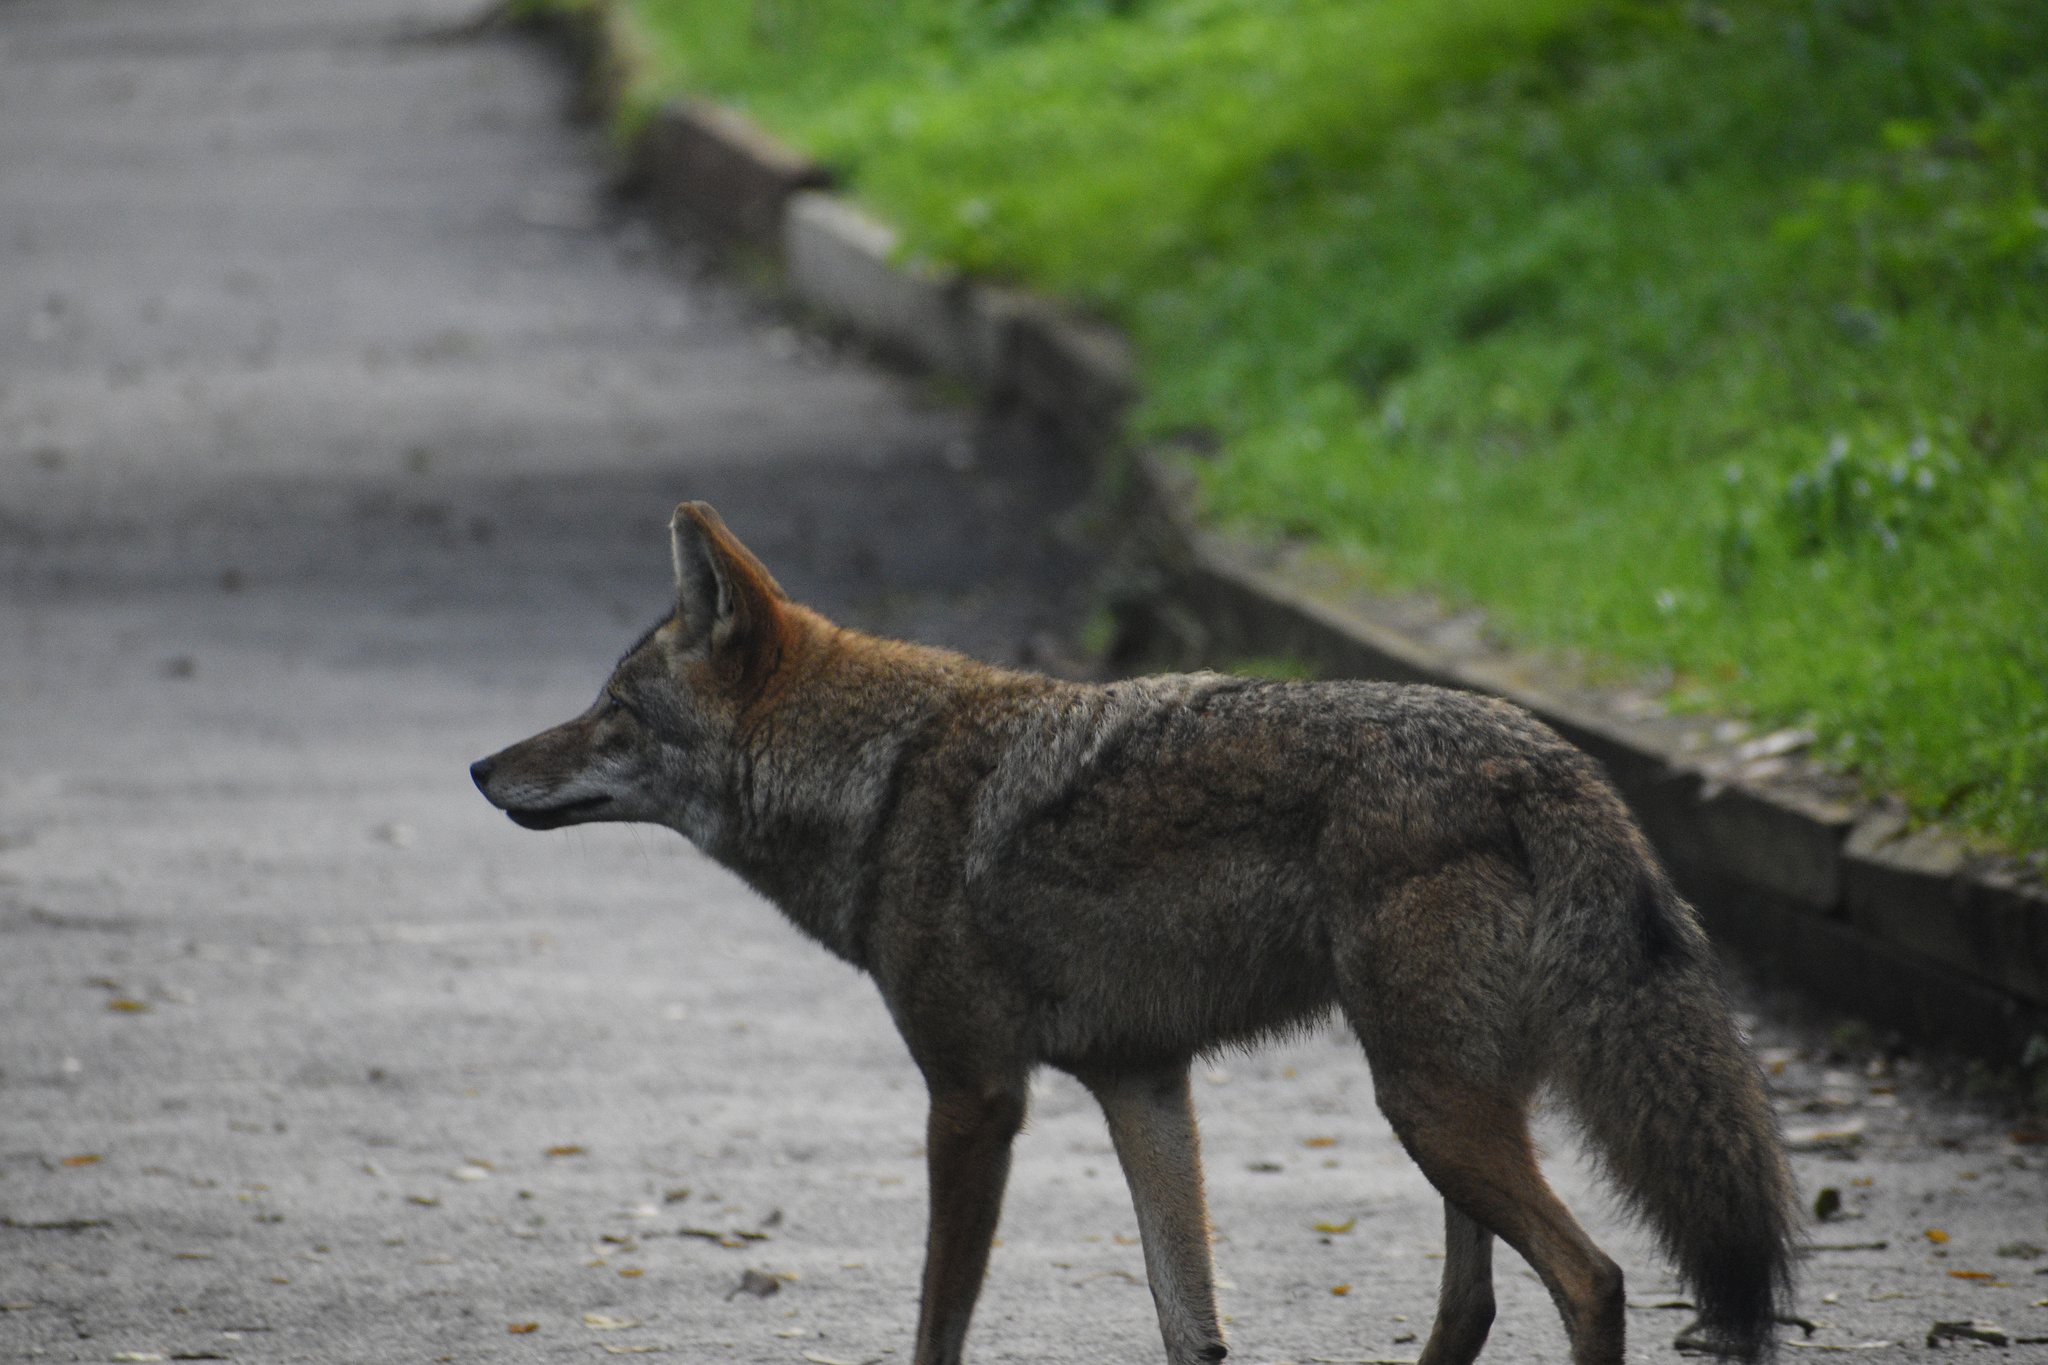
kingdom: Animalia
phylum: Chordata
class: Mammalia
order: Carnivora
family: Canidae
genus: Canis
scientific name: Canis latrans
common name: Coyote
